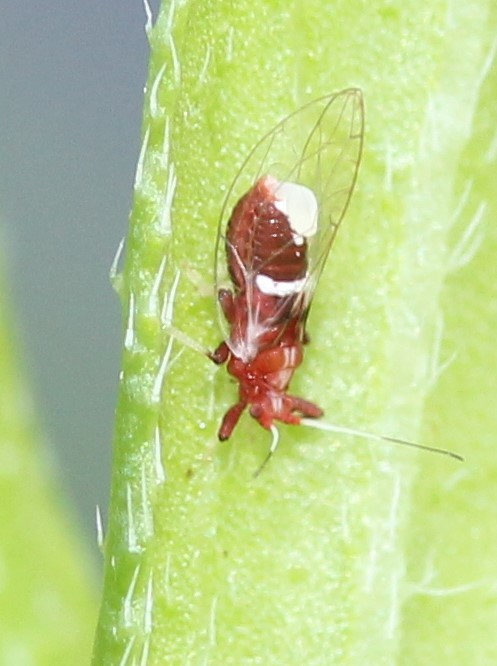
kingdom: Animalia
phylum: Arthropoda
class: Insecta
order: Hemiptera
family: Triozidae
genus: Bactericera
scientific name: Bactericera antennata
